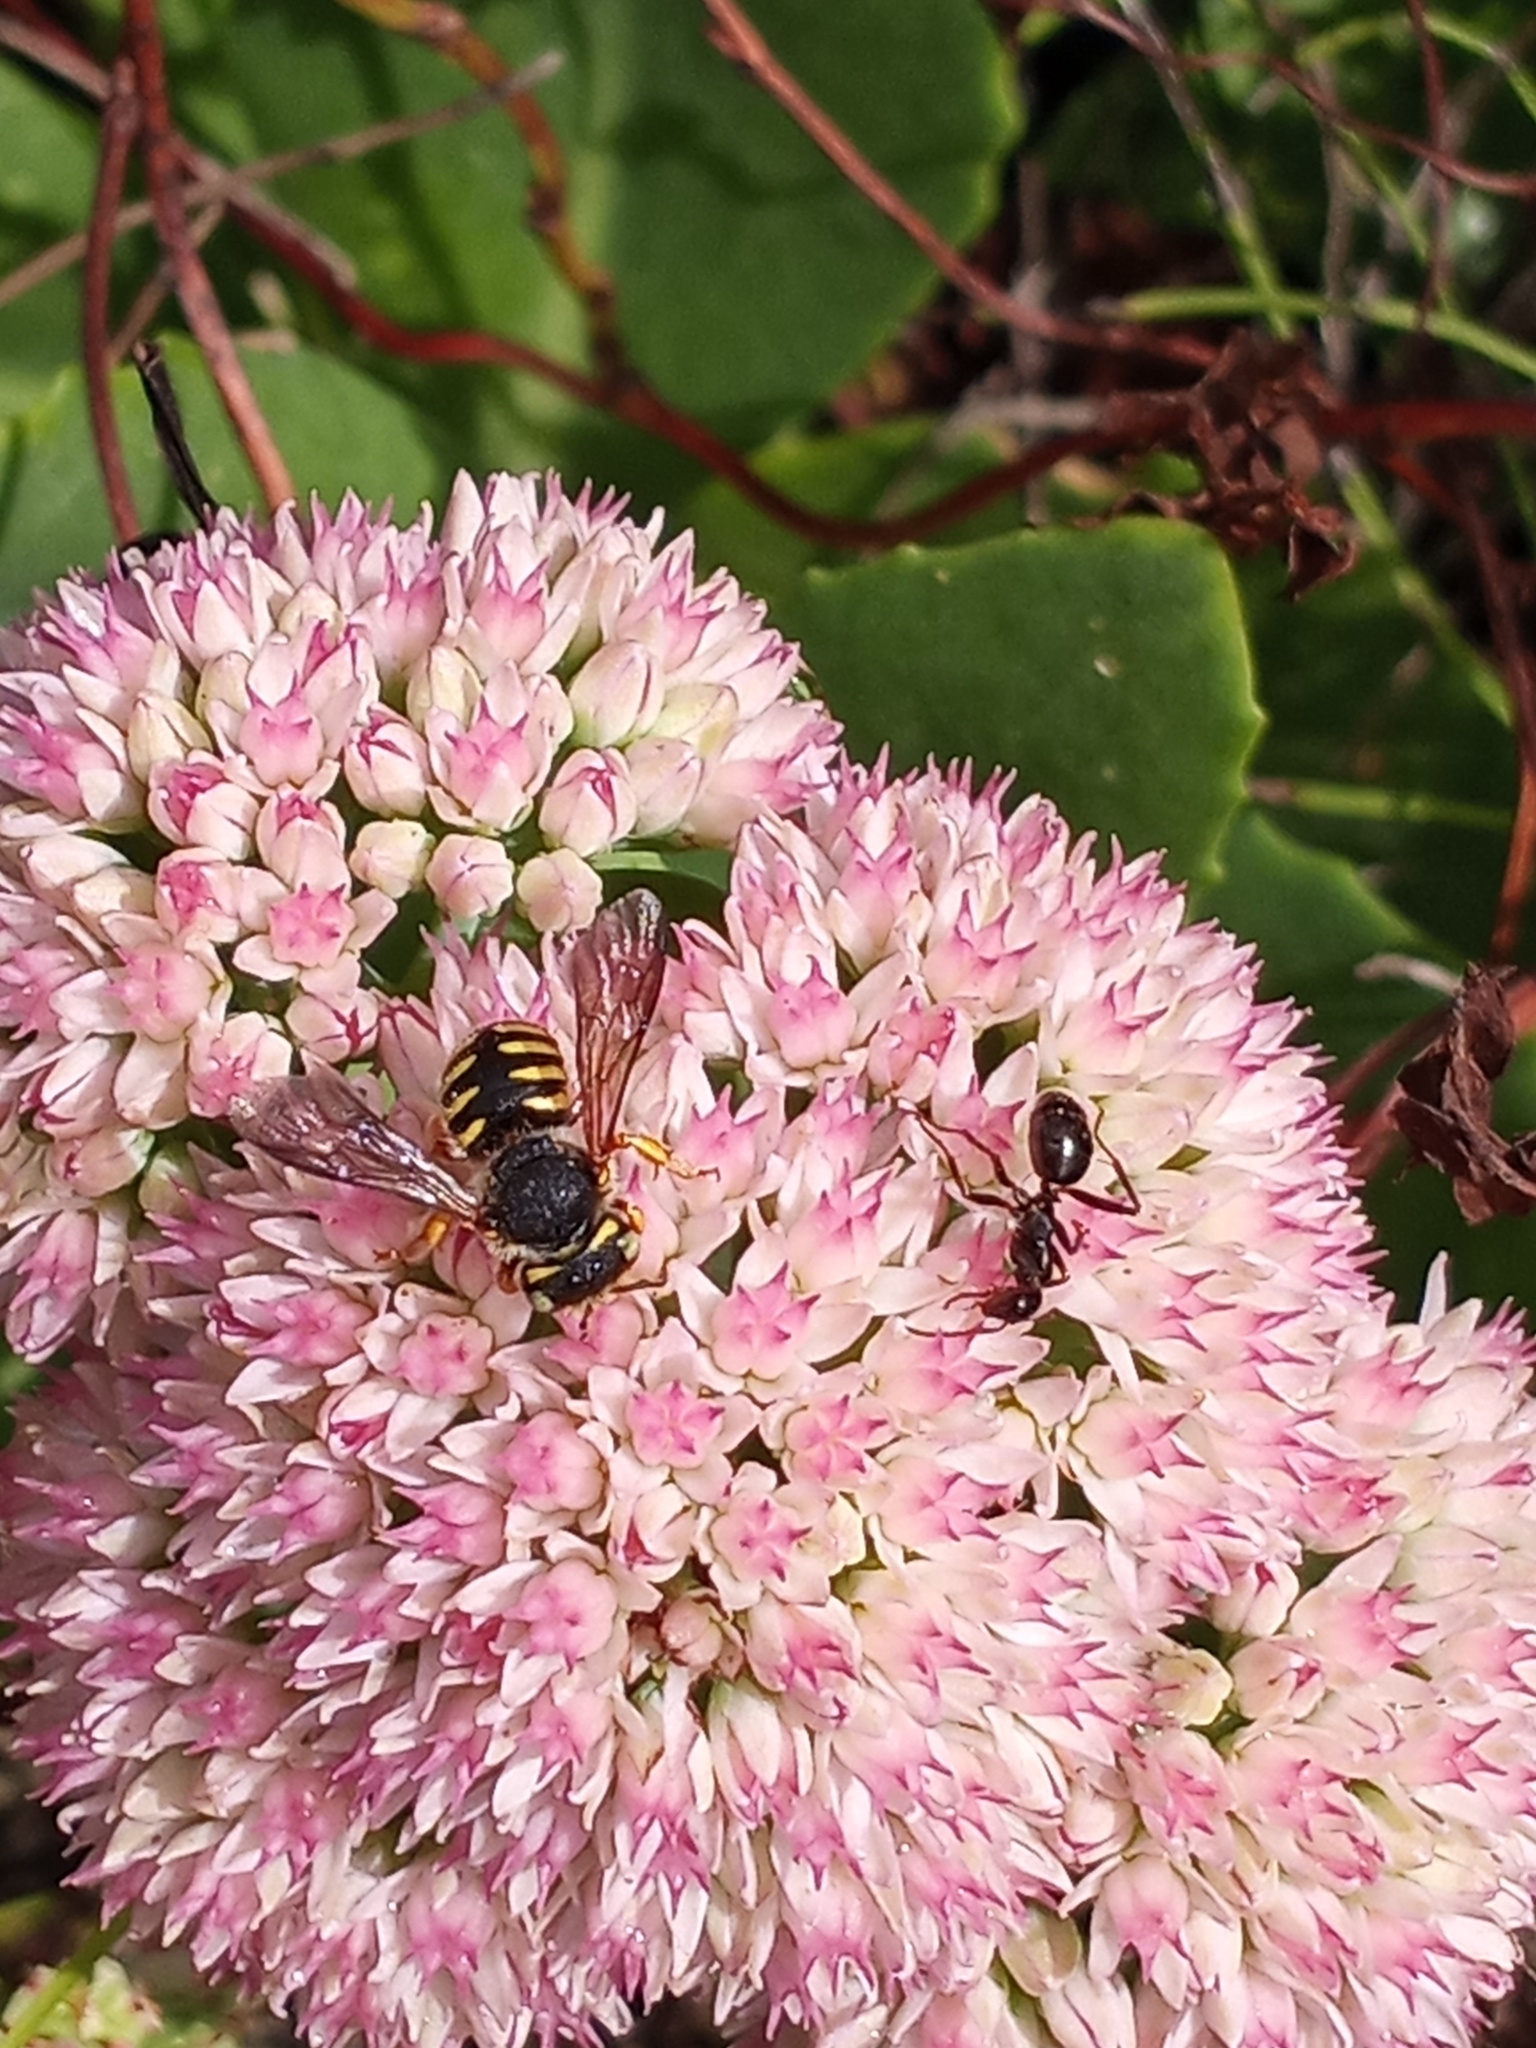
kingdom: Animalia
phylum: Arthropoda
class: Insecta
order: Hymenoptera
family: Megachilidae
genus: Anthidium
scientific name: Anthidium oblongatum
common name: Oblong wool carder bee
